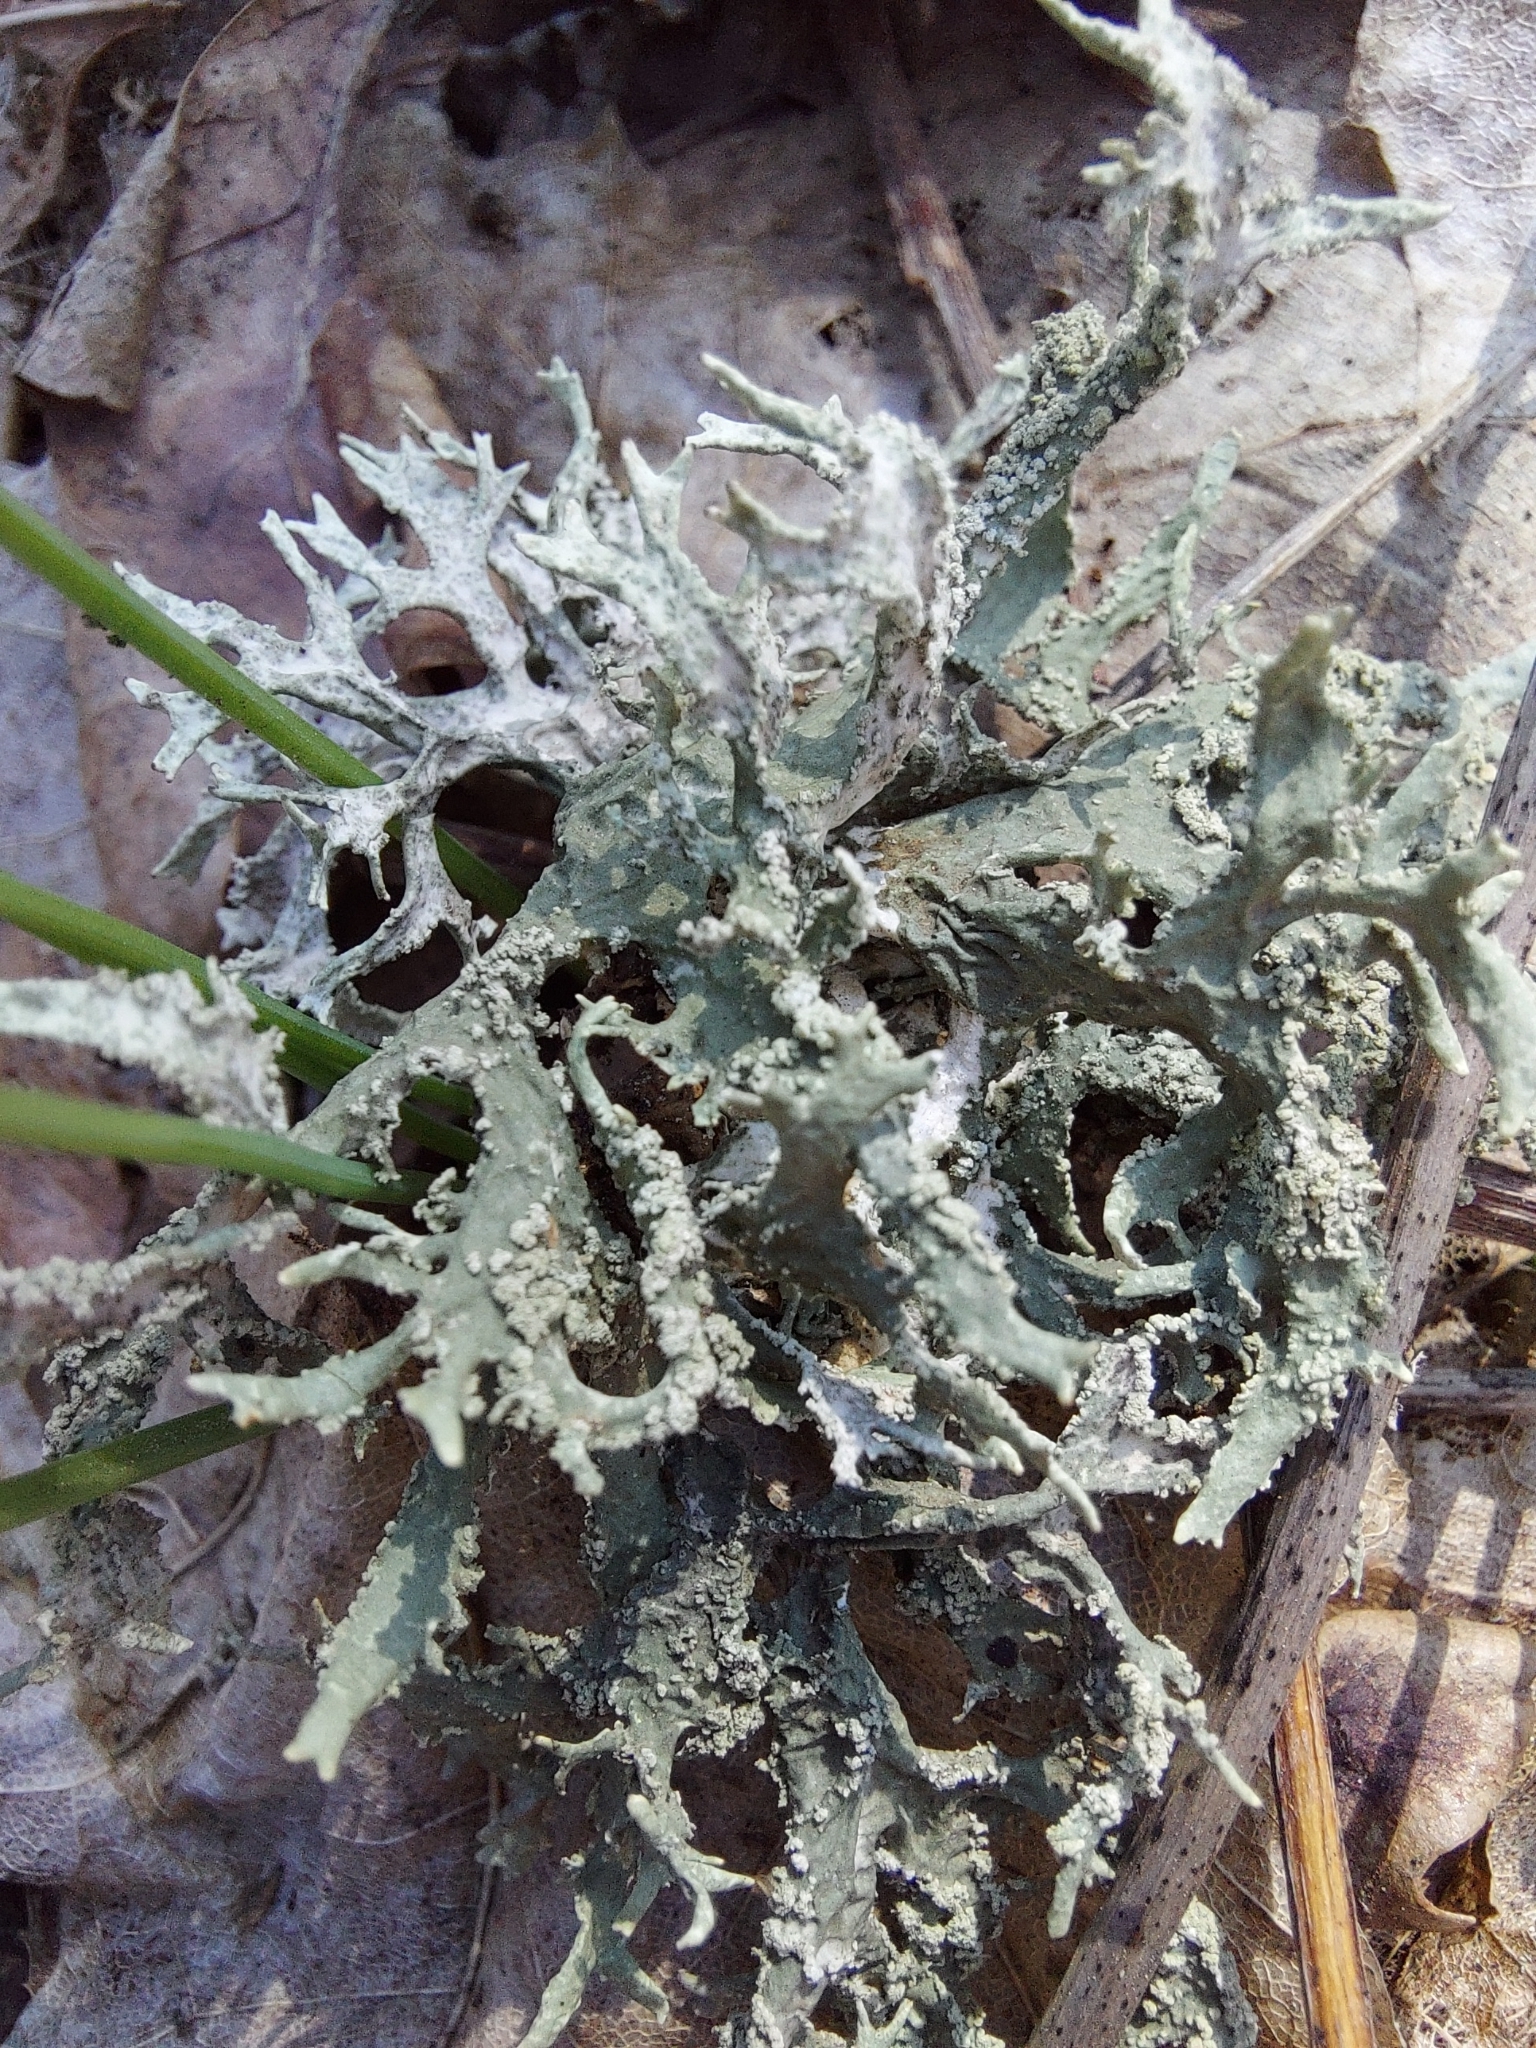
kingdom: Fungi
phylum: Ascomycota
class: Lecanoromycetes
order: Lecanorales
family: Parmeliaceae
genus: Evernia
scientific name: Evernia prunastri
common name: Oak moss
